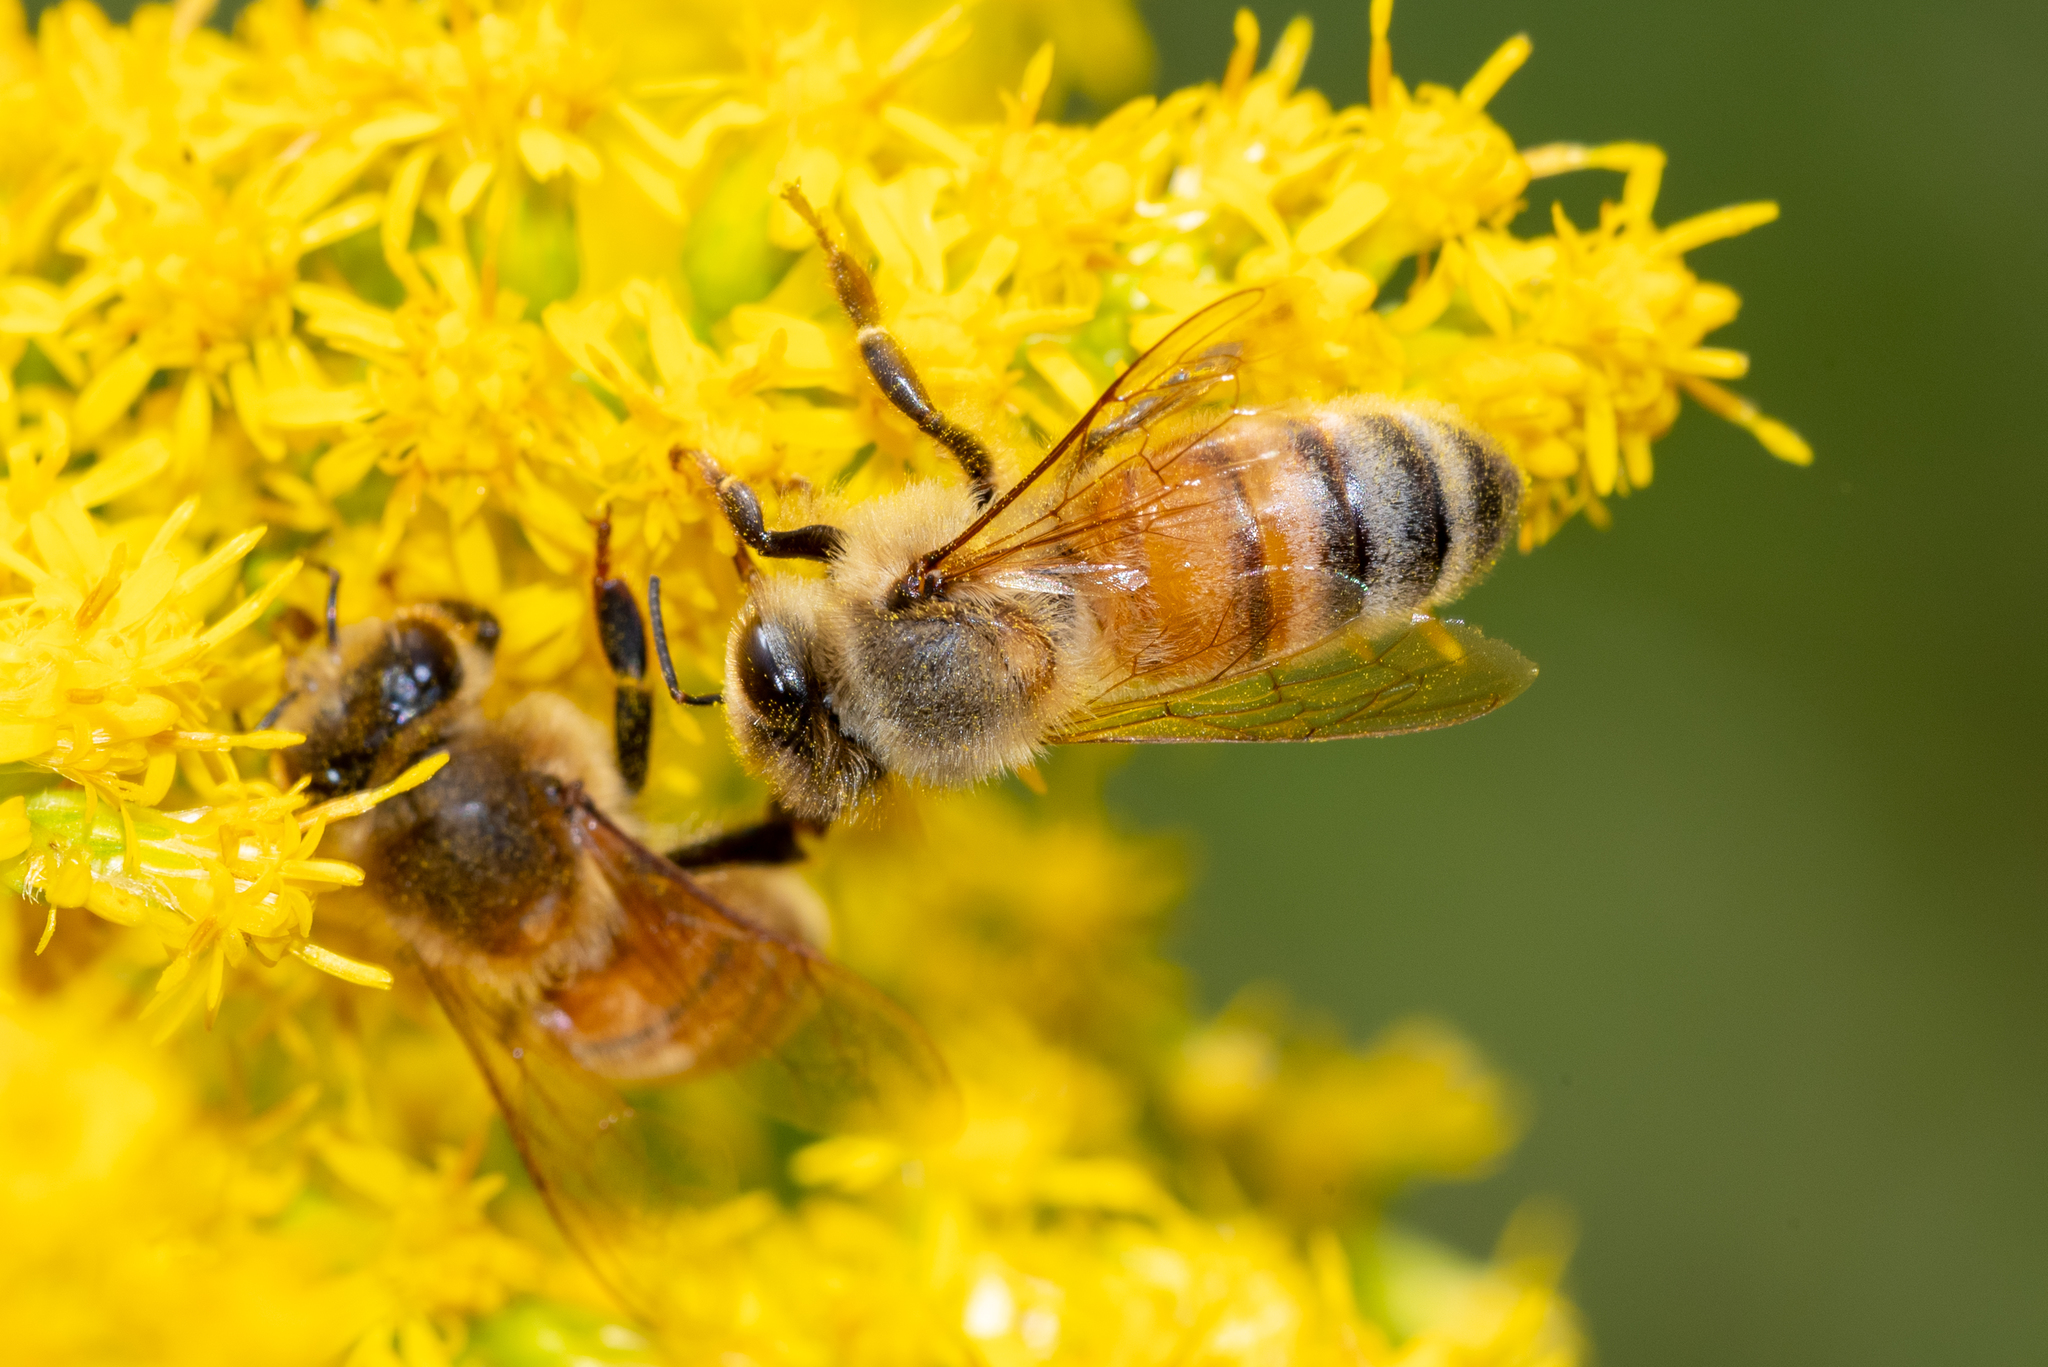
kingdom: Animalia
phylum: Arthropoda
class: Insecta
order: Hymenoptera
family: Apidae
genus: Apis
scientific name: Apis mellifera
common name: Honey bee
